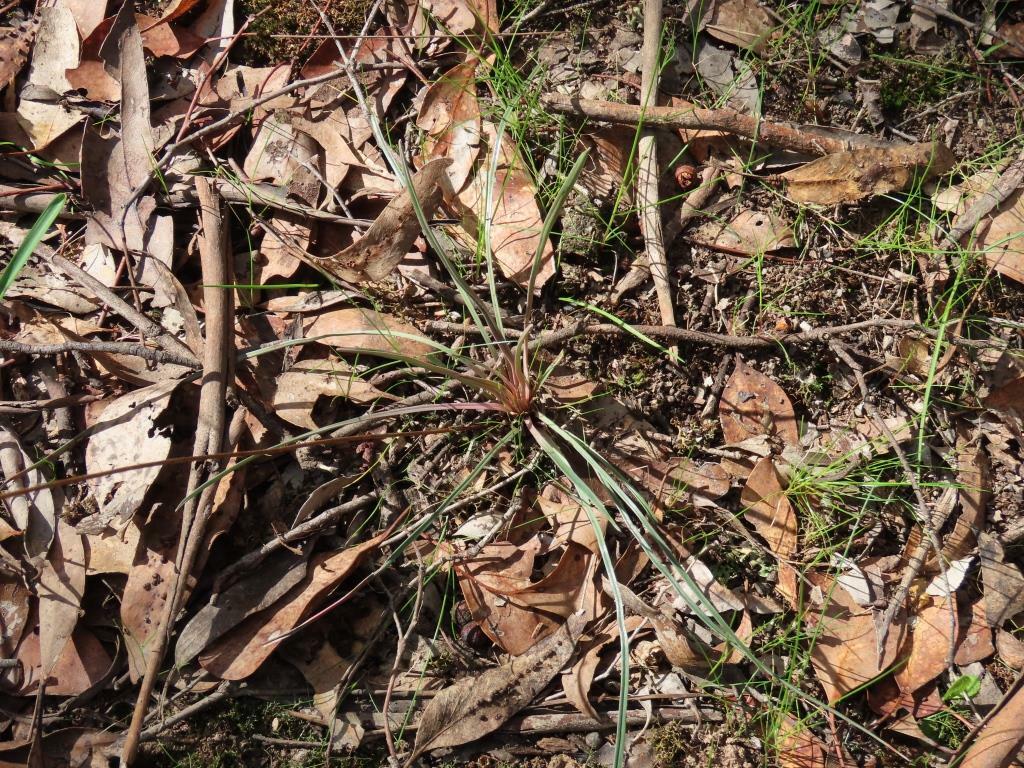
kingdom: Plantae
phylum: Tracheophyta
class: Magnoliopsida
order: Asterales
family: Stylidiaceae
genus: Stylidium
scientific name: Stylidium graminifolium
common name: Grass triggerplant
